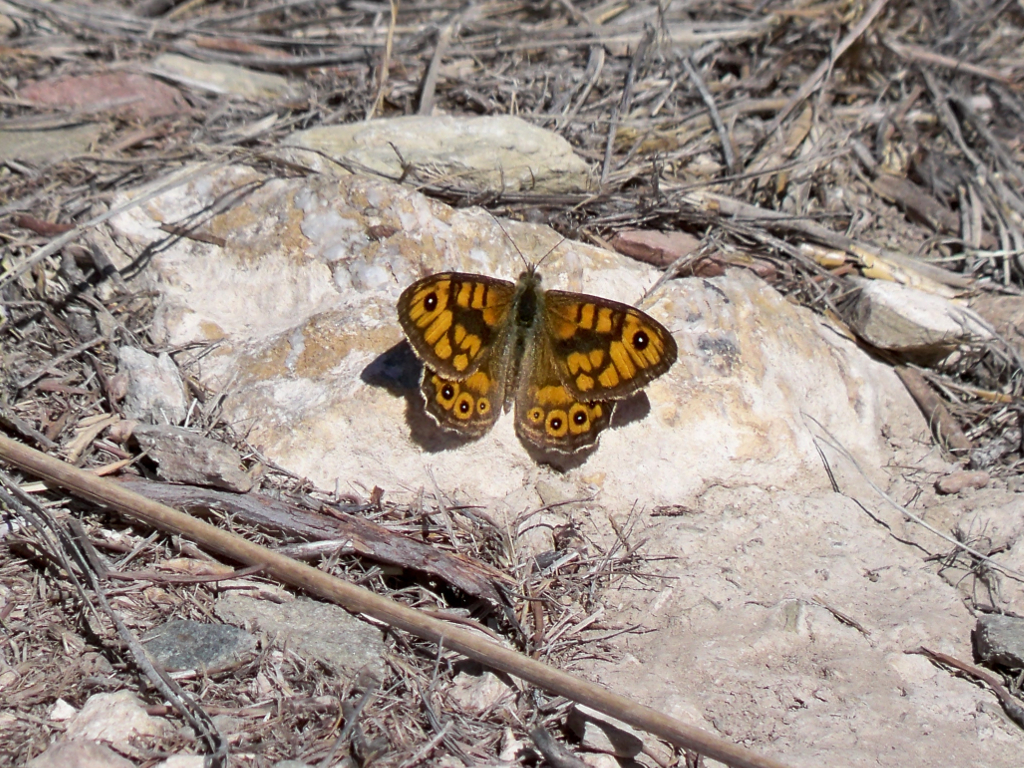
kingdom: Animalia
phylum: Arthropoda
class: Insecta
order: Lepidoptera
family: Nymphalidae
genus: Pararge
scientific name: Pararge Lasiommata megera
